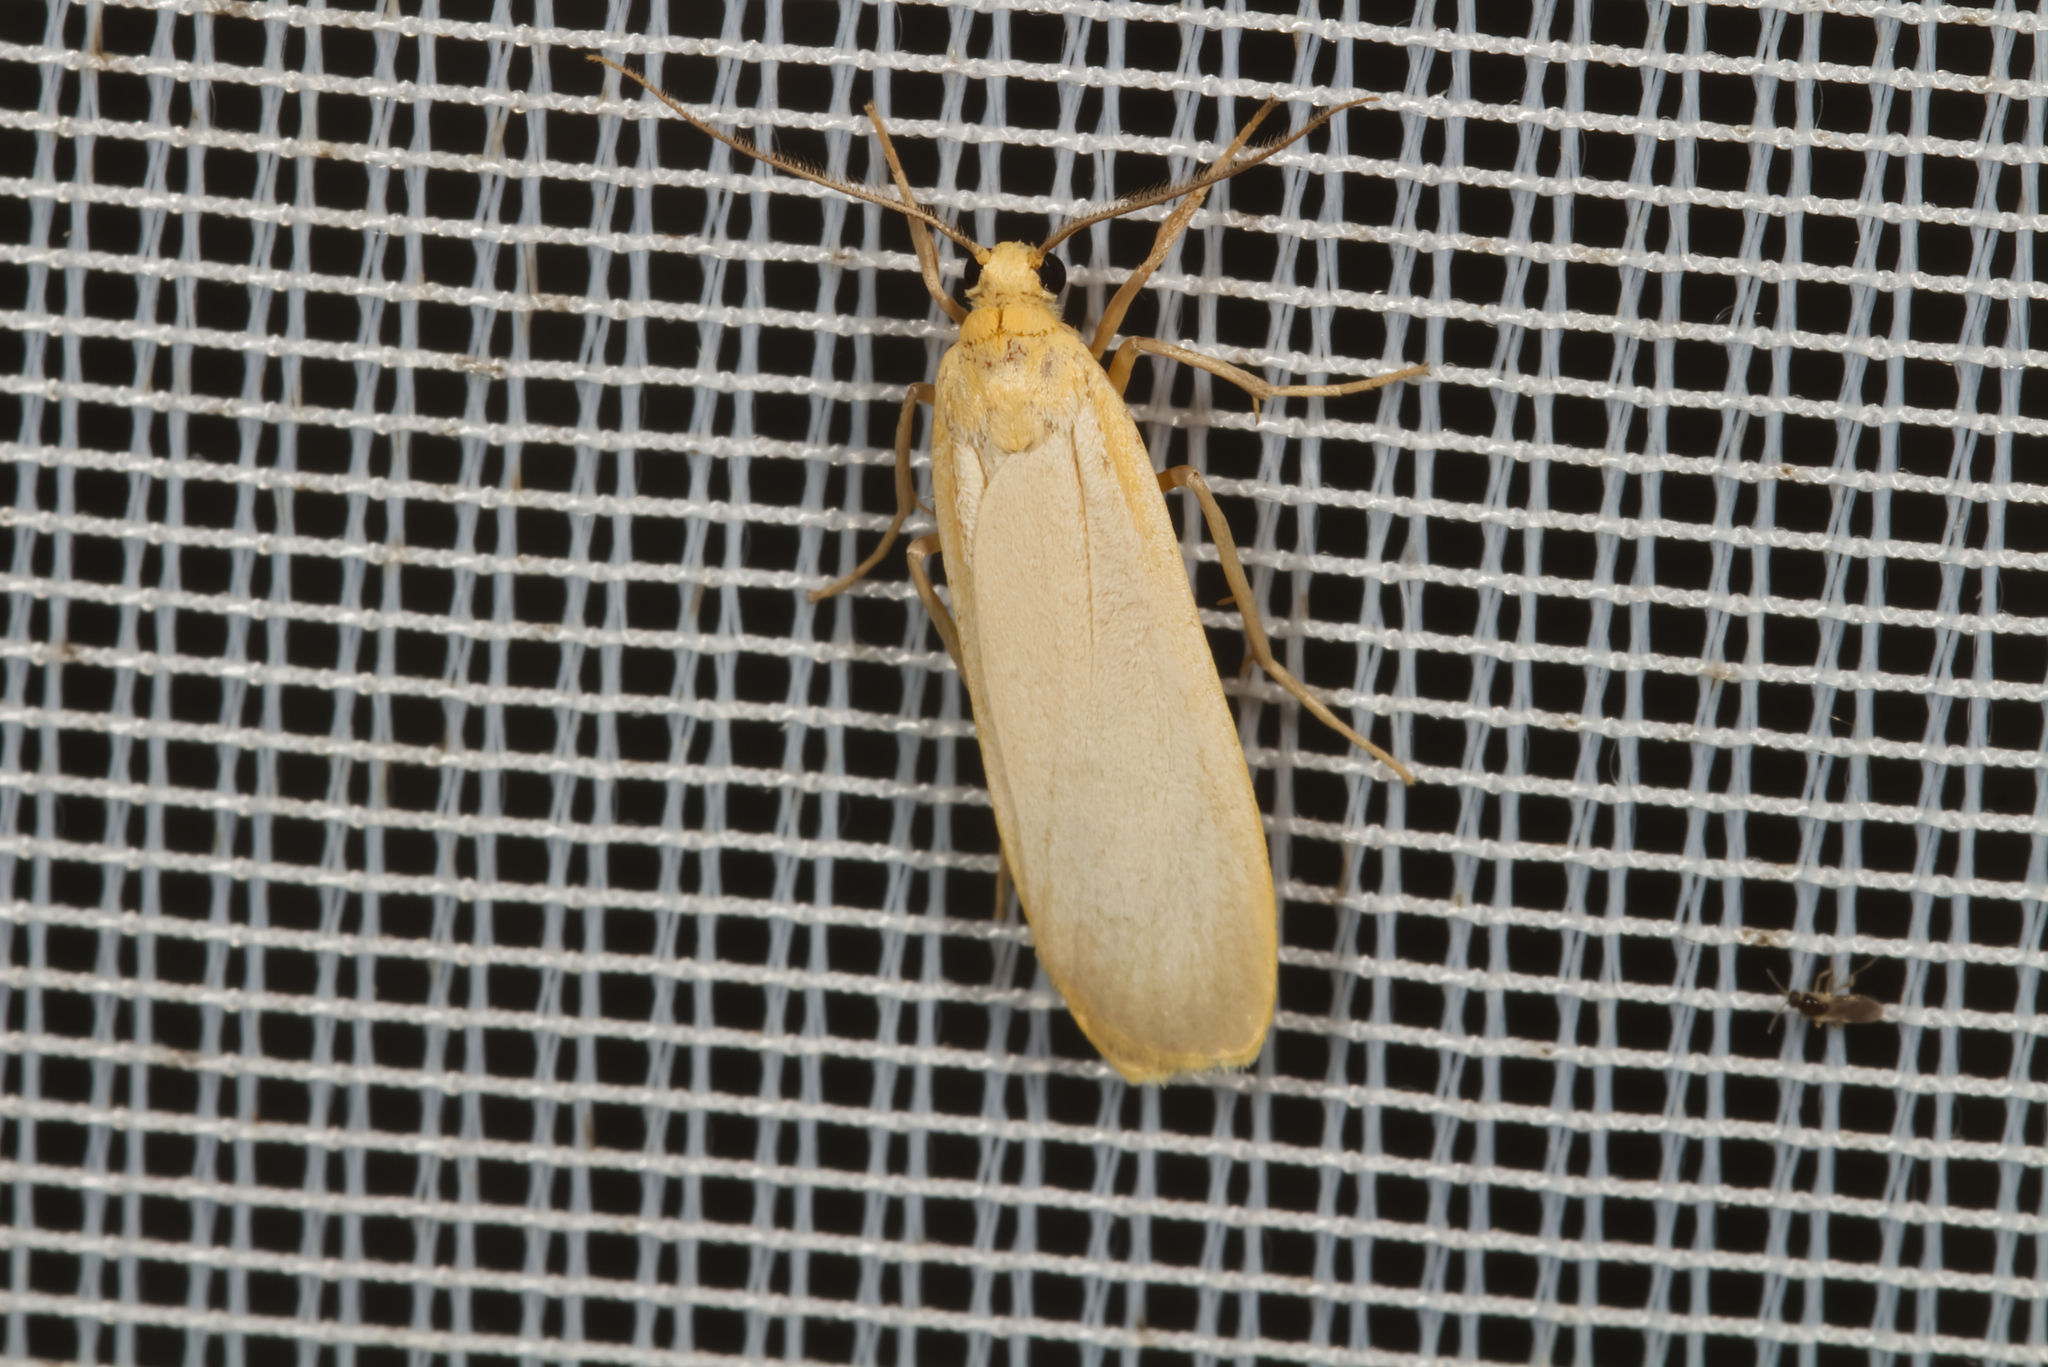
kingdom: Animalia
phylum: Arthropoda
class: Insecta
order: Lepidoptera
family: Erebidae
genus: Katha
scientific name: Katha depressa
